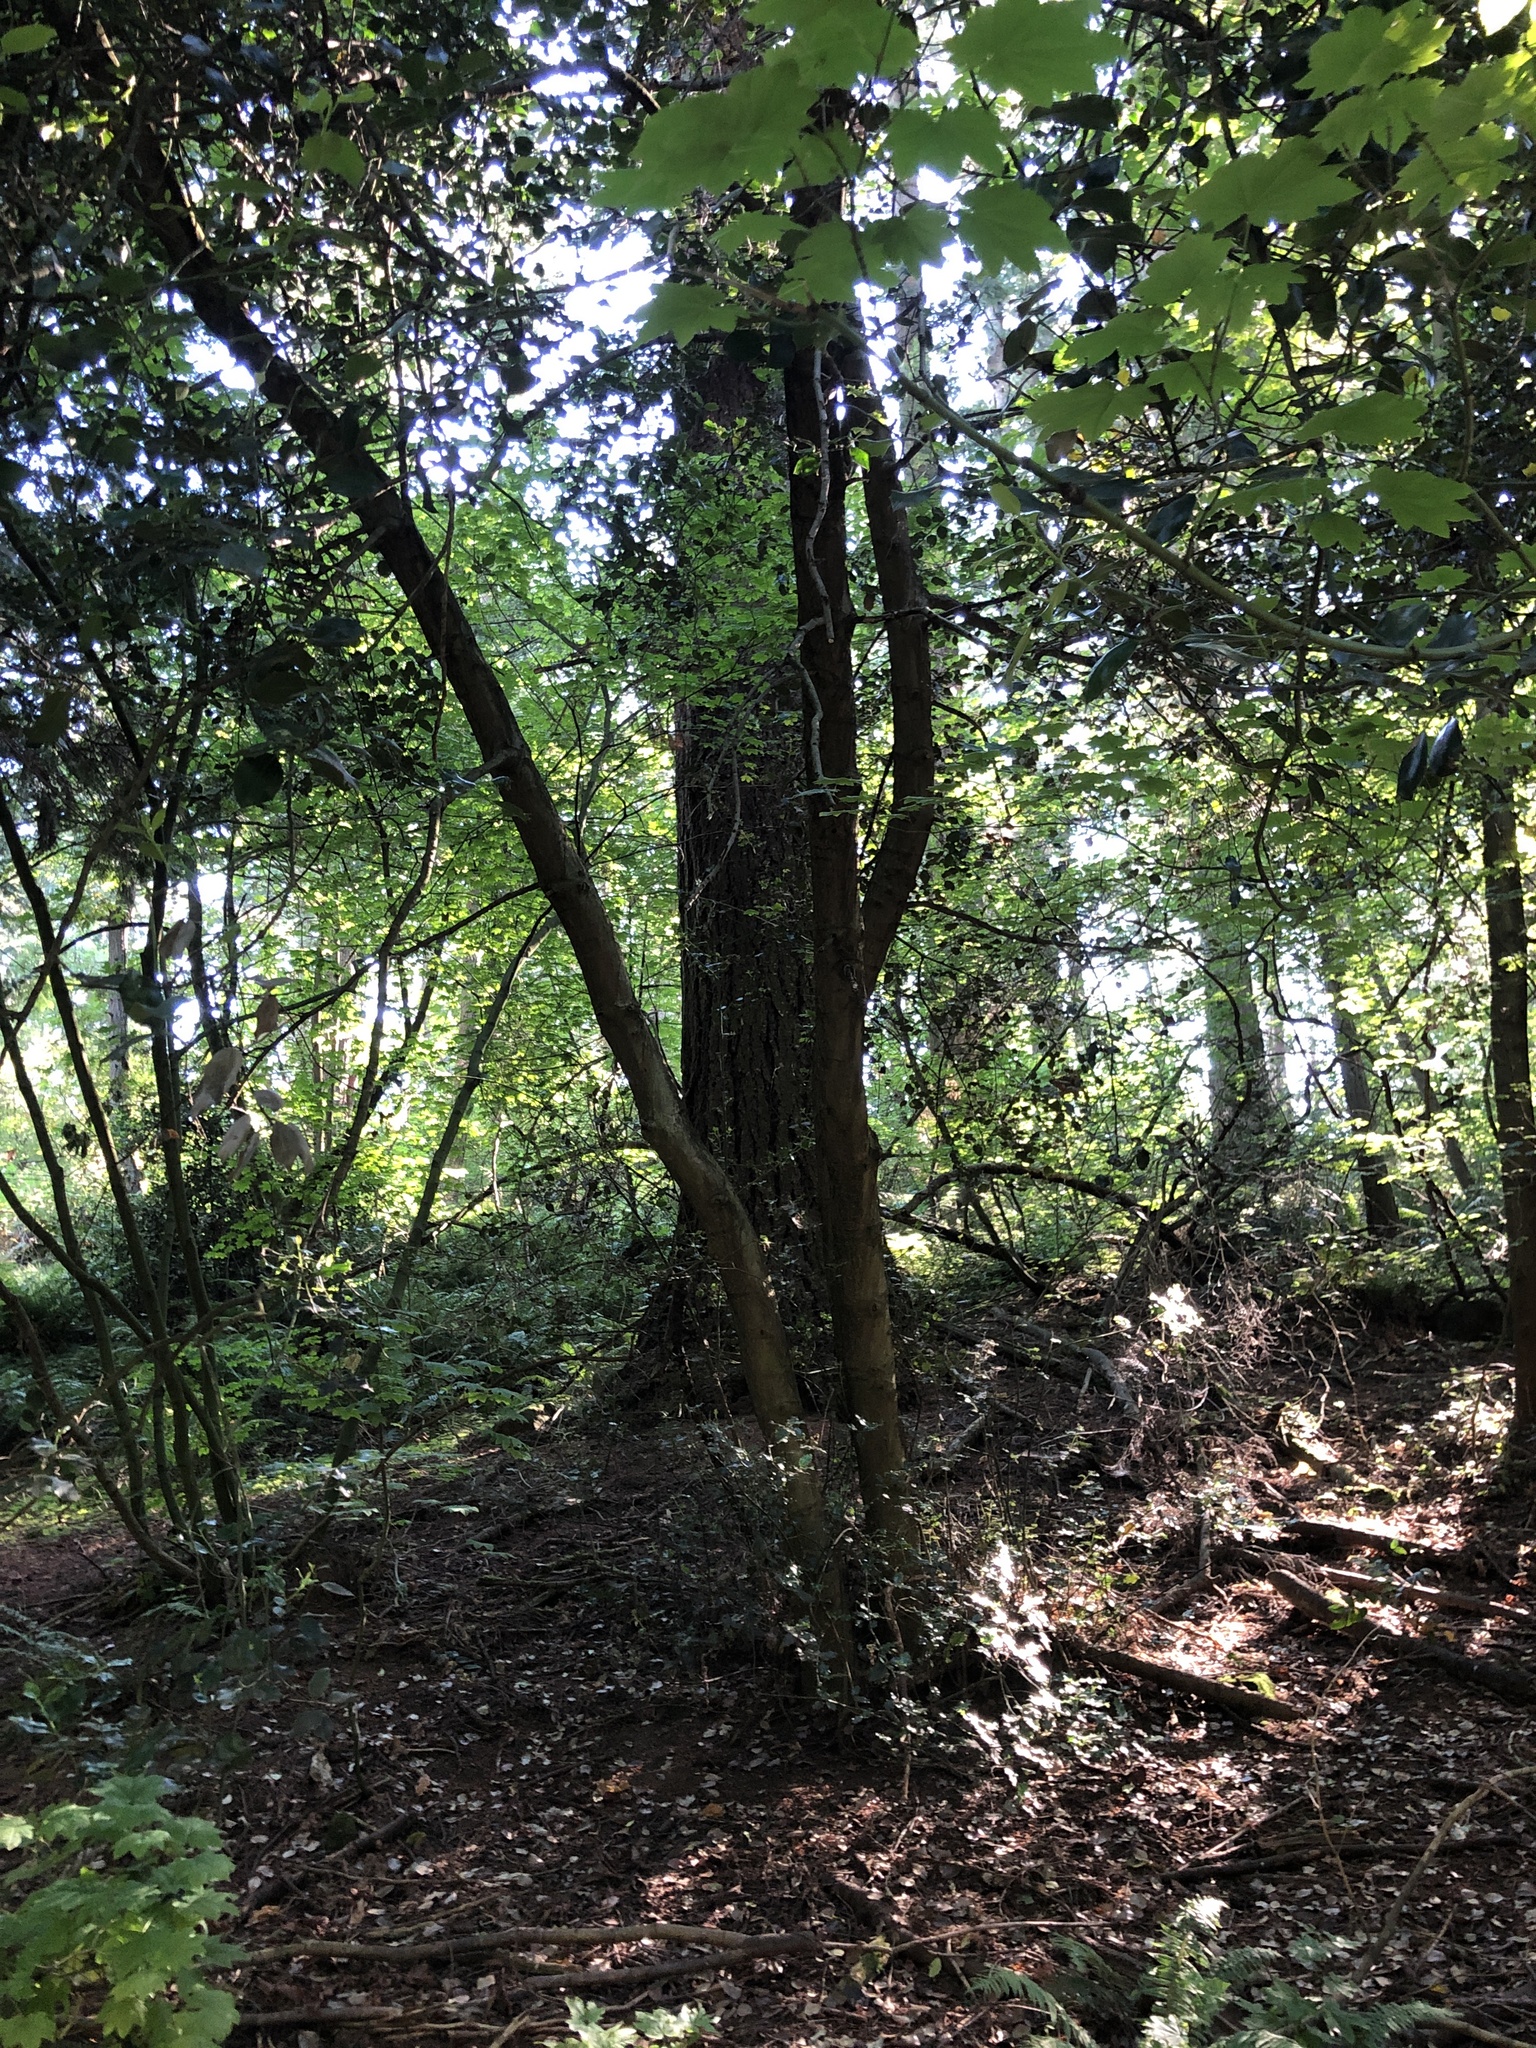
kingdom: Plantae
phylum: Tracheophyta
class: Magnoliopsida
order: Aquifoliales
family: Aquifoliaceae
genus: Ilex
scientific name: Ilex aquifolium
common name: English holly
